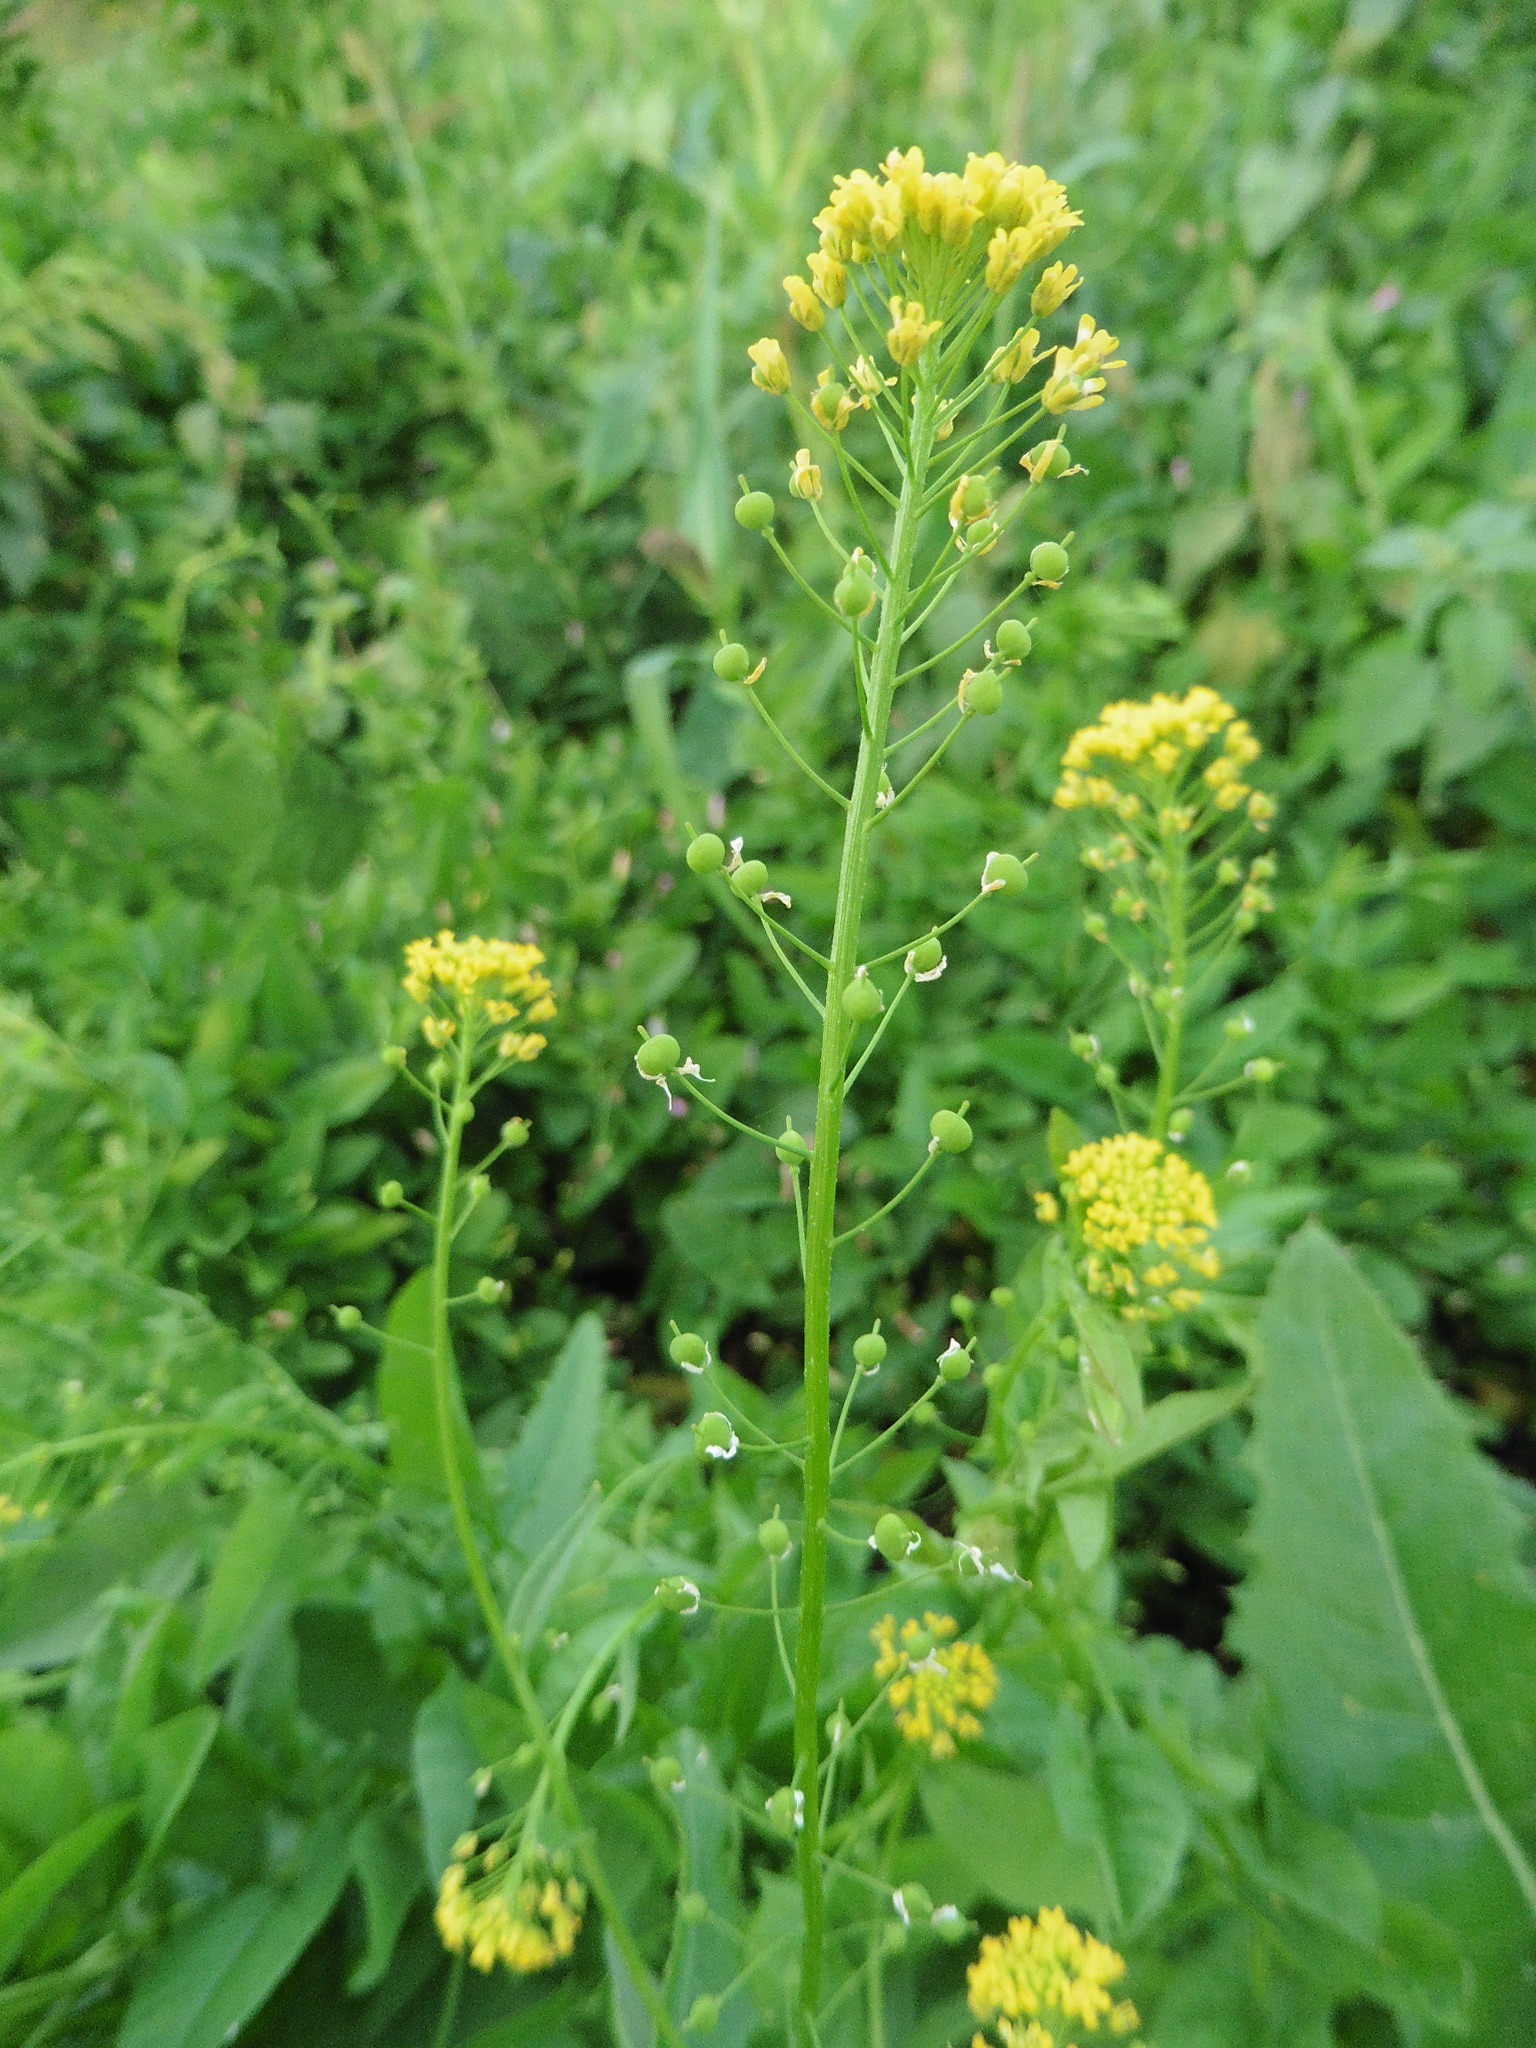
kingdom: Plantae
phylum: Tracheophyta
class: Magnoliopsida
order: Brassicales
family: Brassicaceae
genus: Neslia
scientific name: Neslia paniculata
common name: Ball mustard
